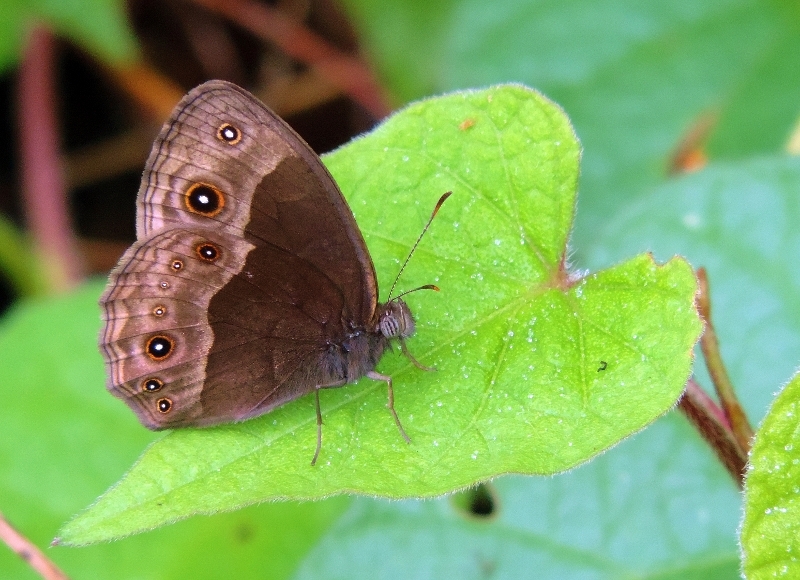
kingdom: Animalia
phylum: Arthropoda
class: Insecta
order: Lepidoptera
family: Nymphalidae
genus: Mycalesis
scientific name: Mycalesis anynana
